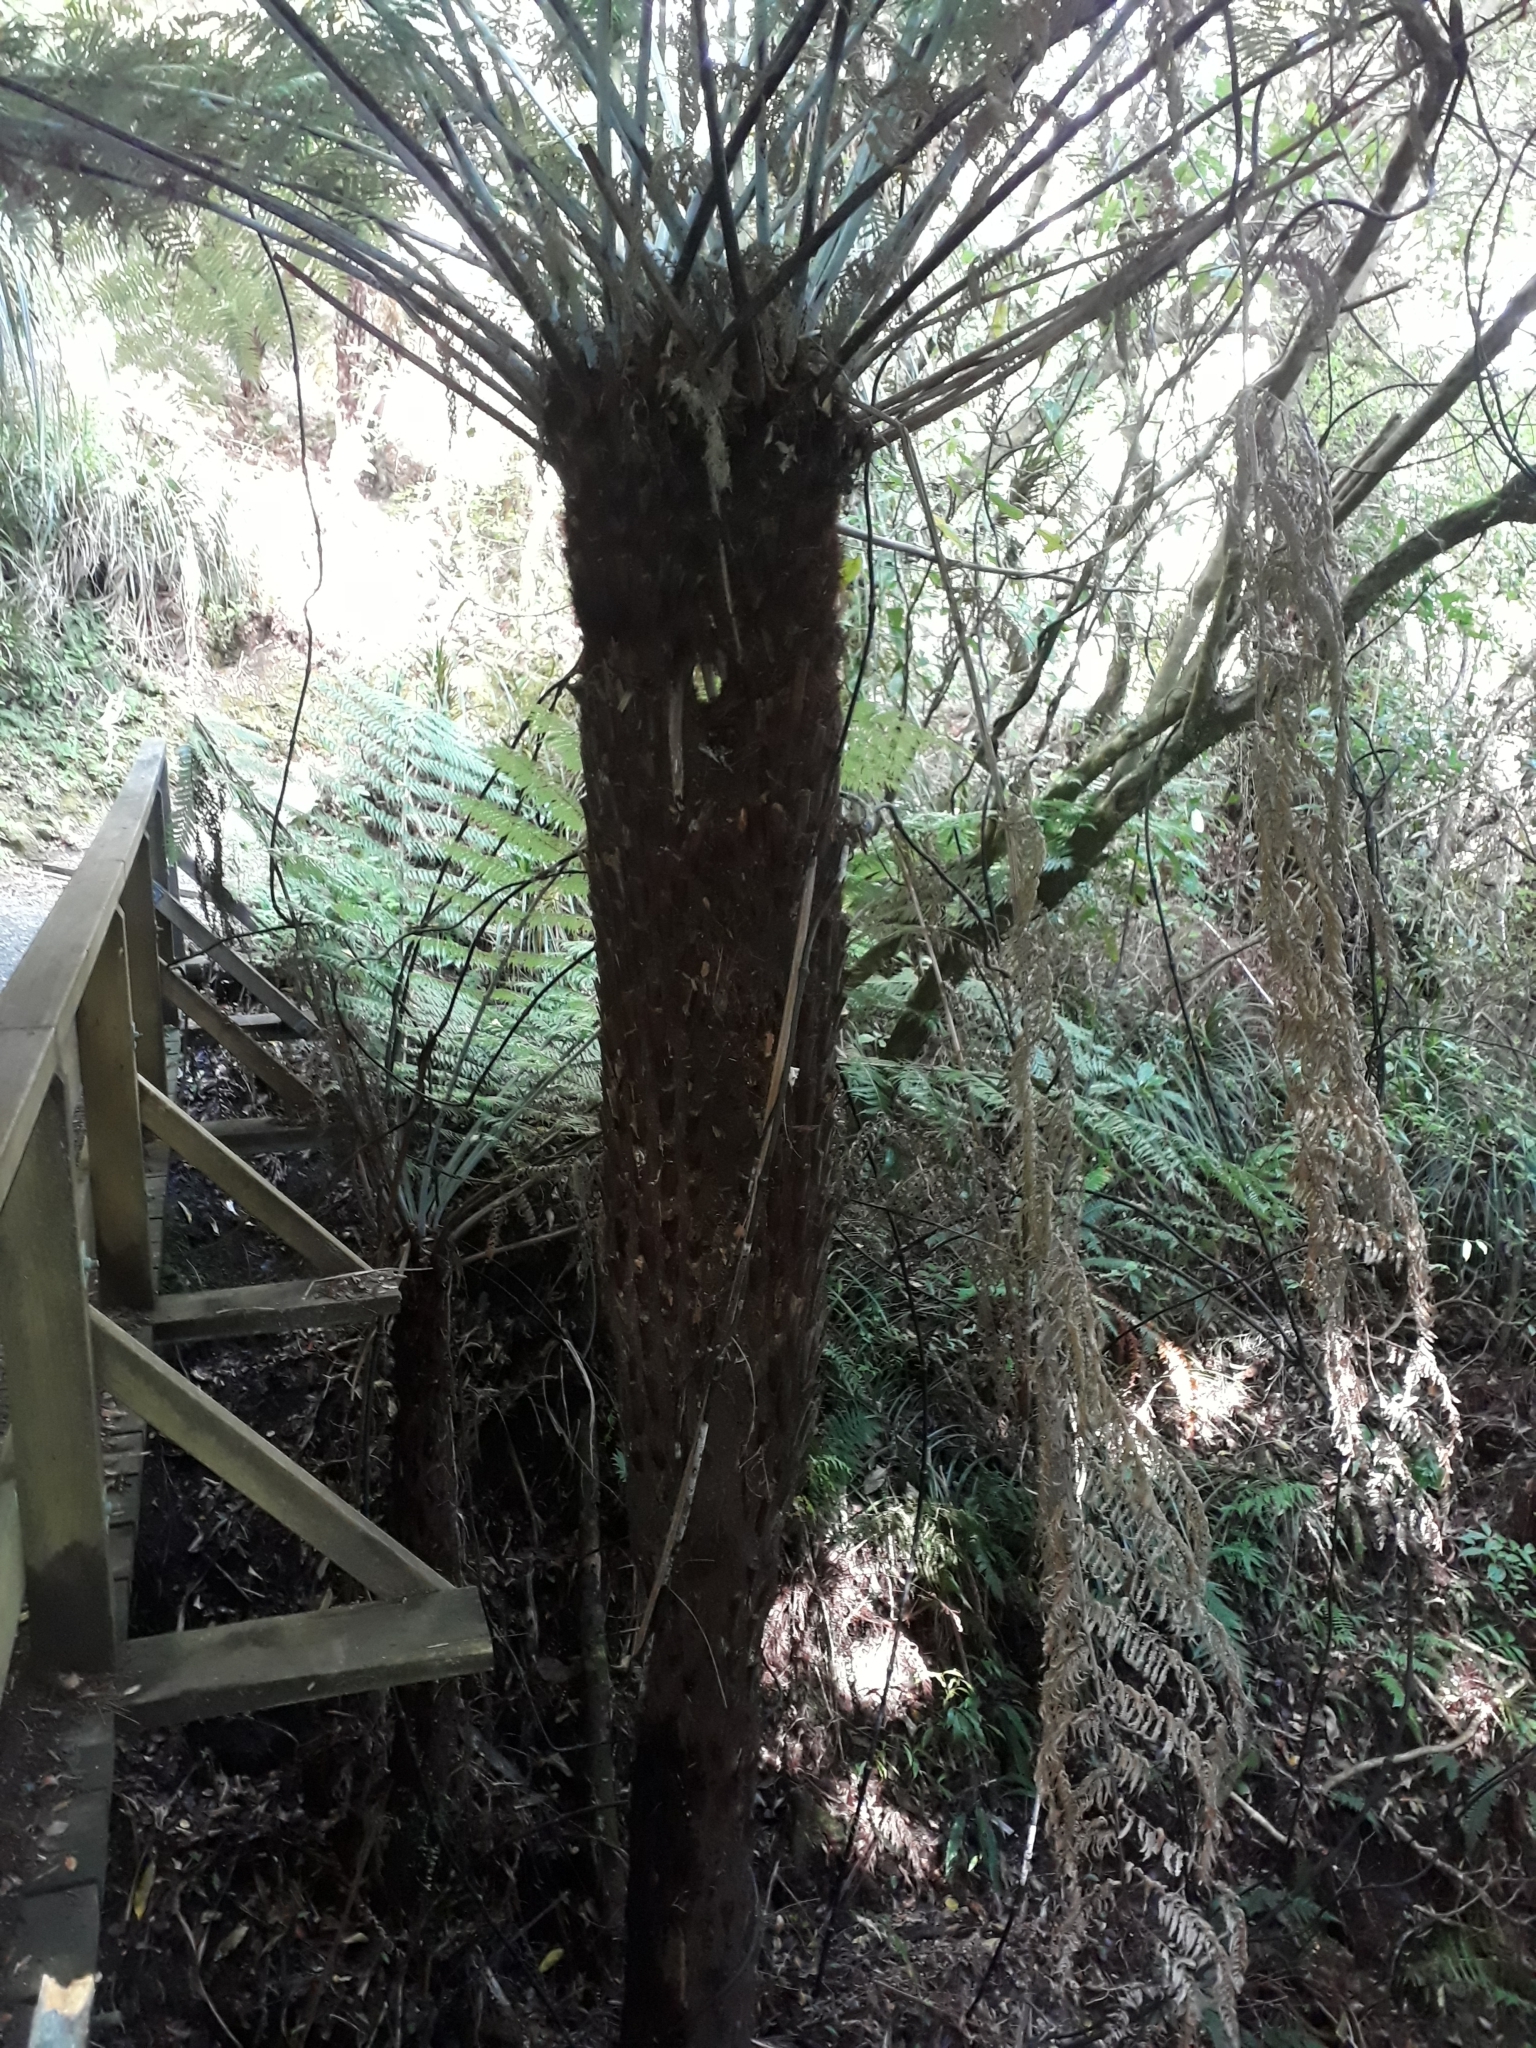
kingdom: Plantae
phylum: Tracheophyta
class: Polypodiopsida
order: Cyatheales
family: Cyatheaceae
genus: Alsophila
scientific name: Alsophila dealbata
